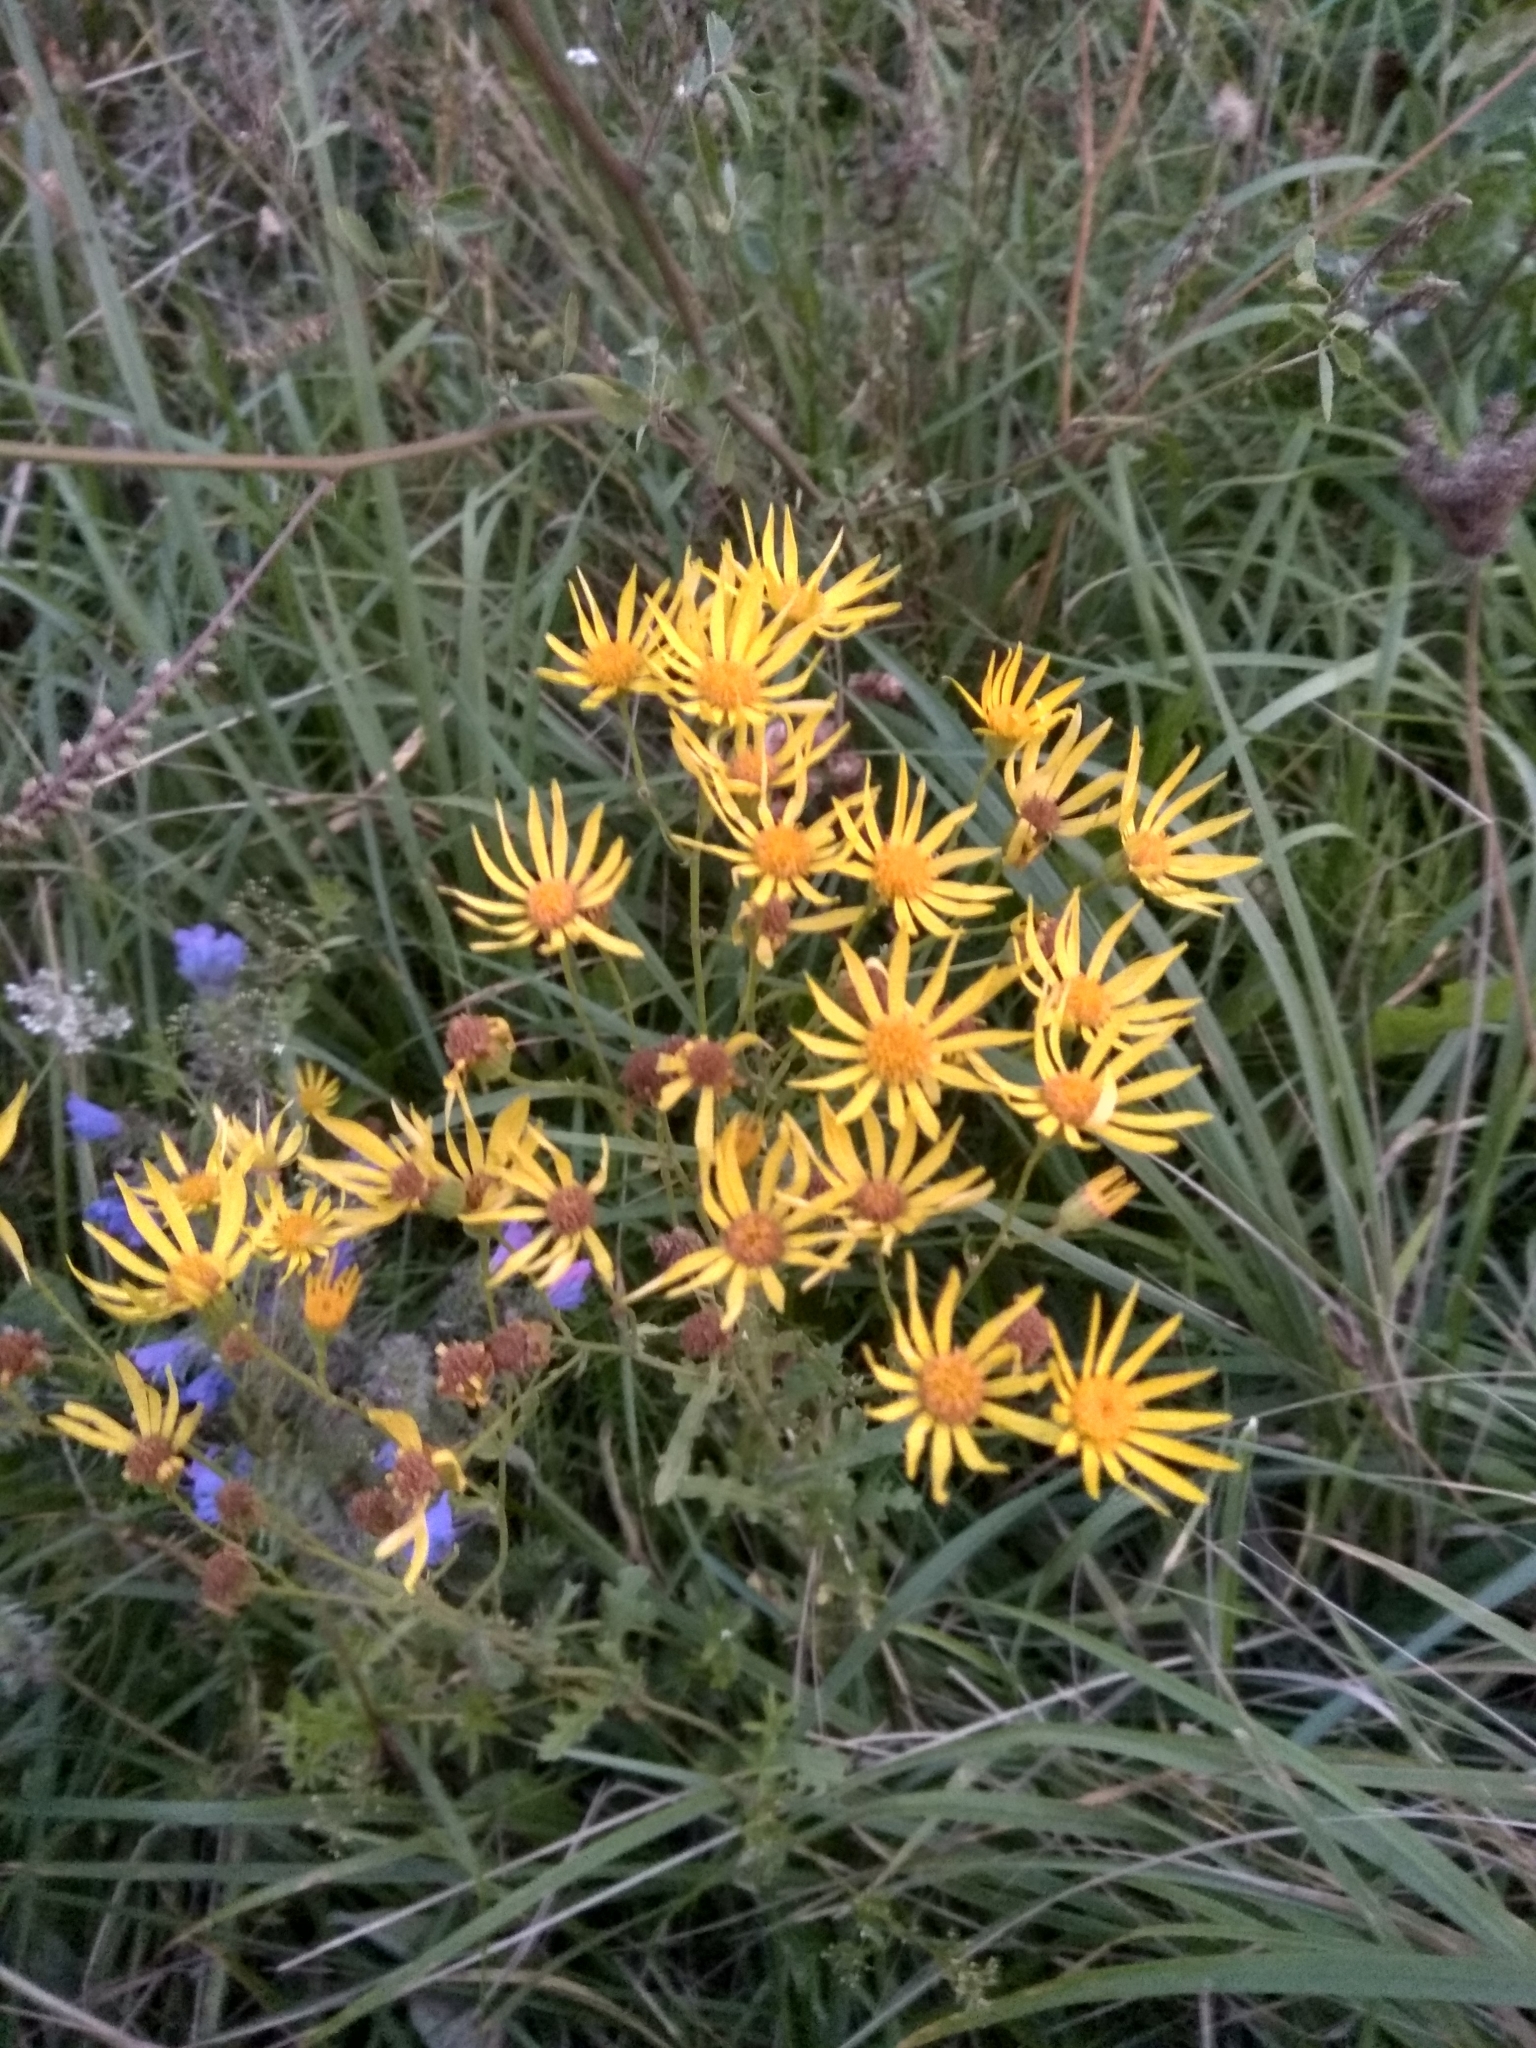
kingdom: Plantae
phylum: Tracheophyta
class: Magnoliopsida
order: Asterales
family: Asteraceae
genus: Jacobaea
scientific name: Jacobaea vulgaris
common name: Stinking willie
